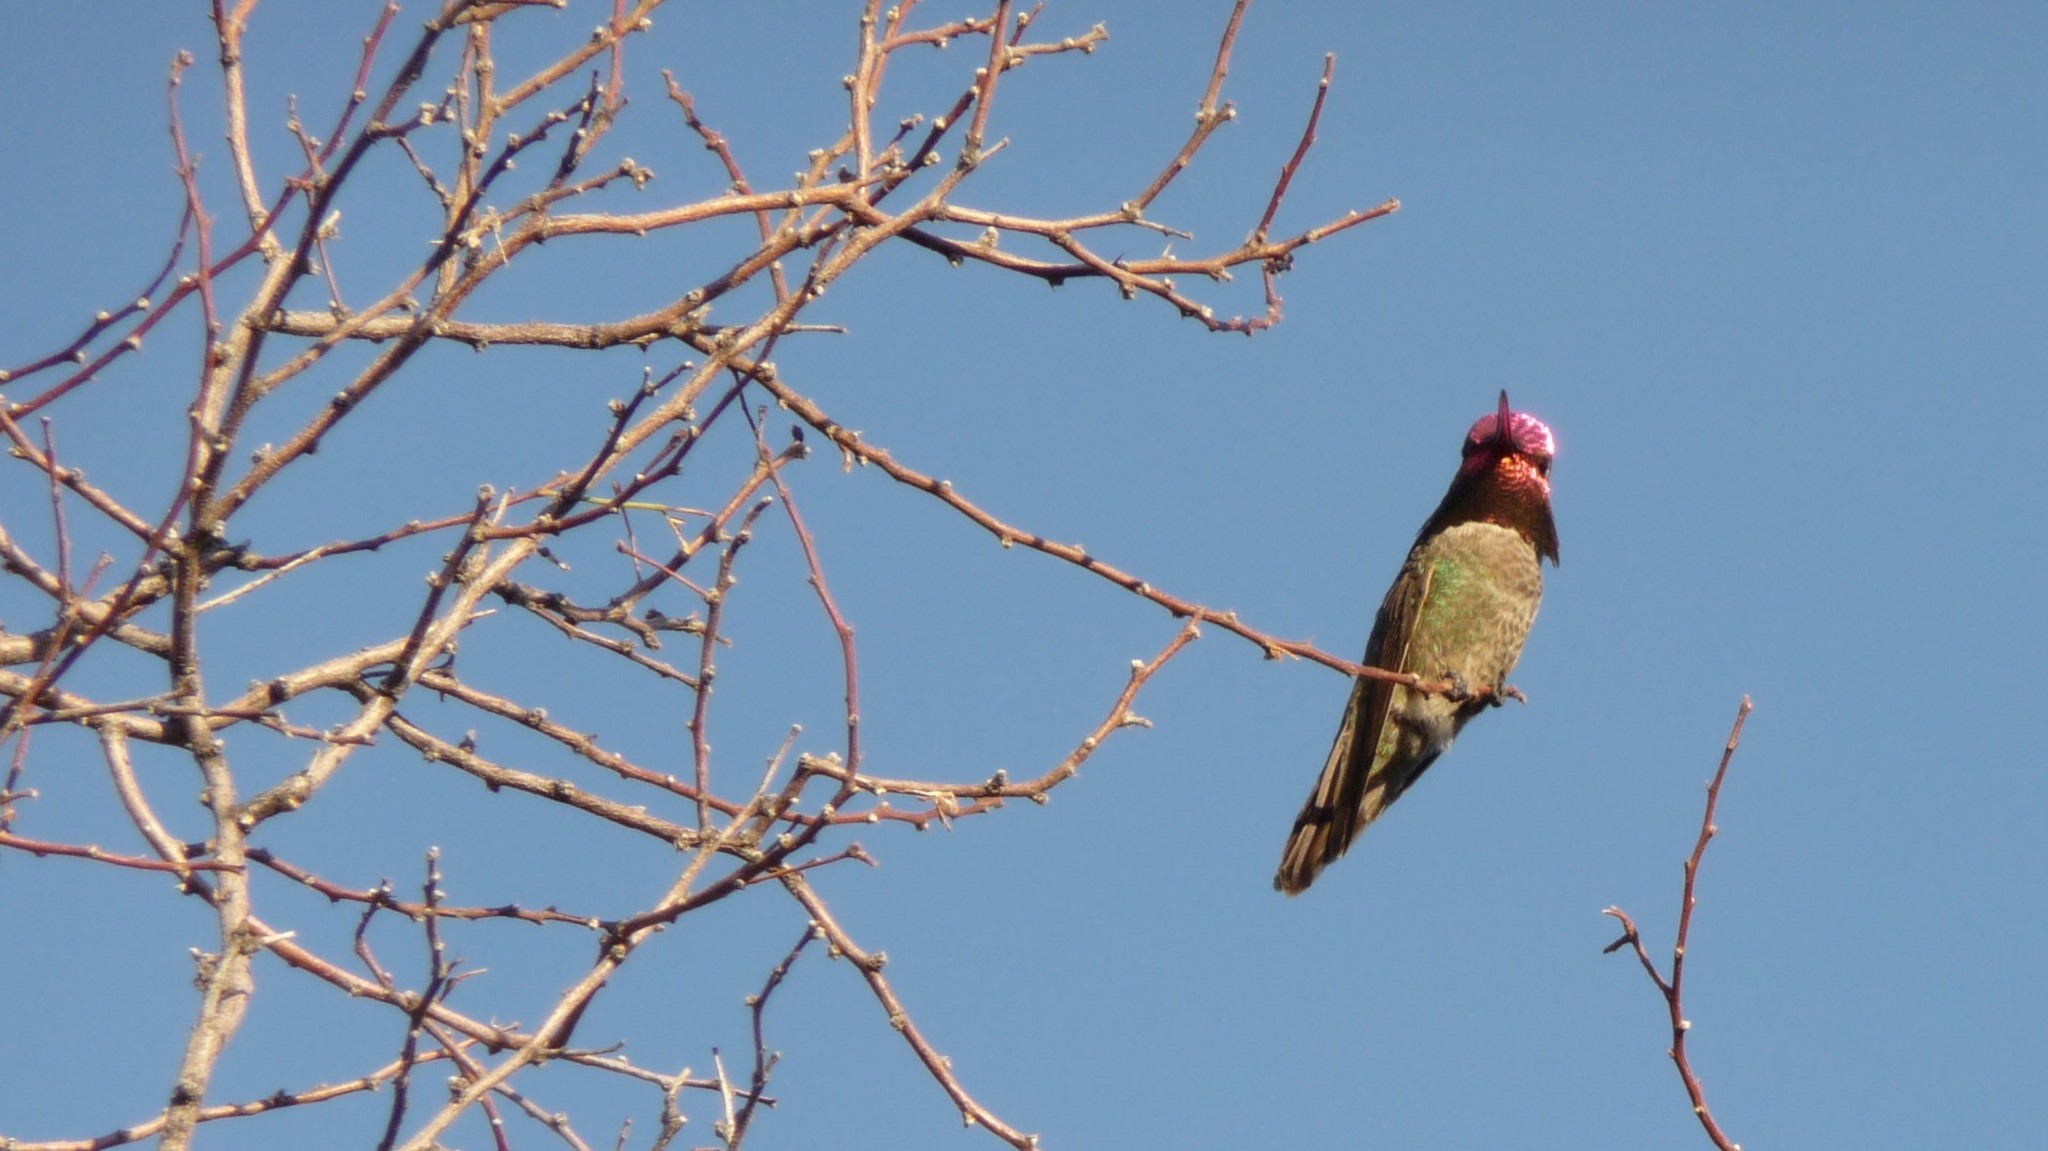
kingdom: Animalia
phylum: Chordata
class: Aves
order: Apodiformes
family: Trochilidae
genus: Calypte
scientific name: Calypte anna
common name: Anna's hummingbird
